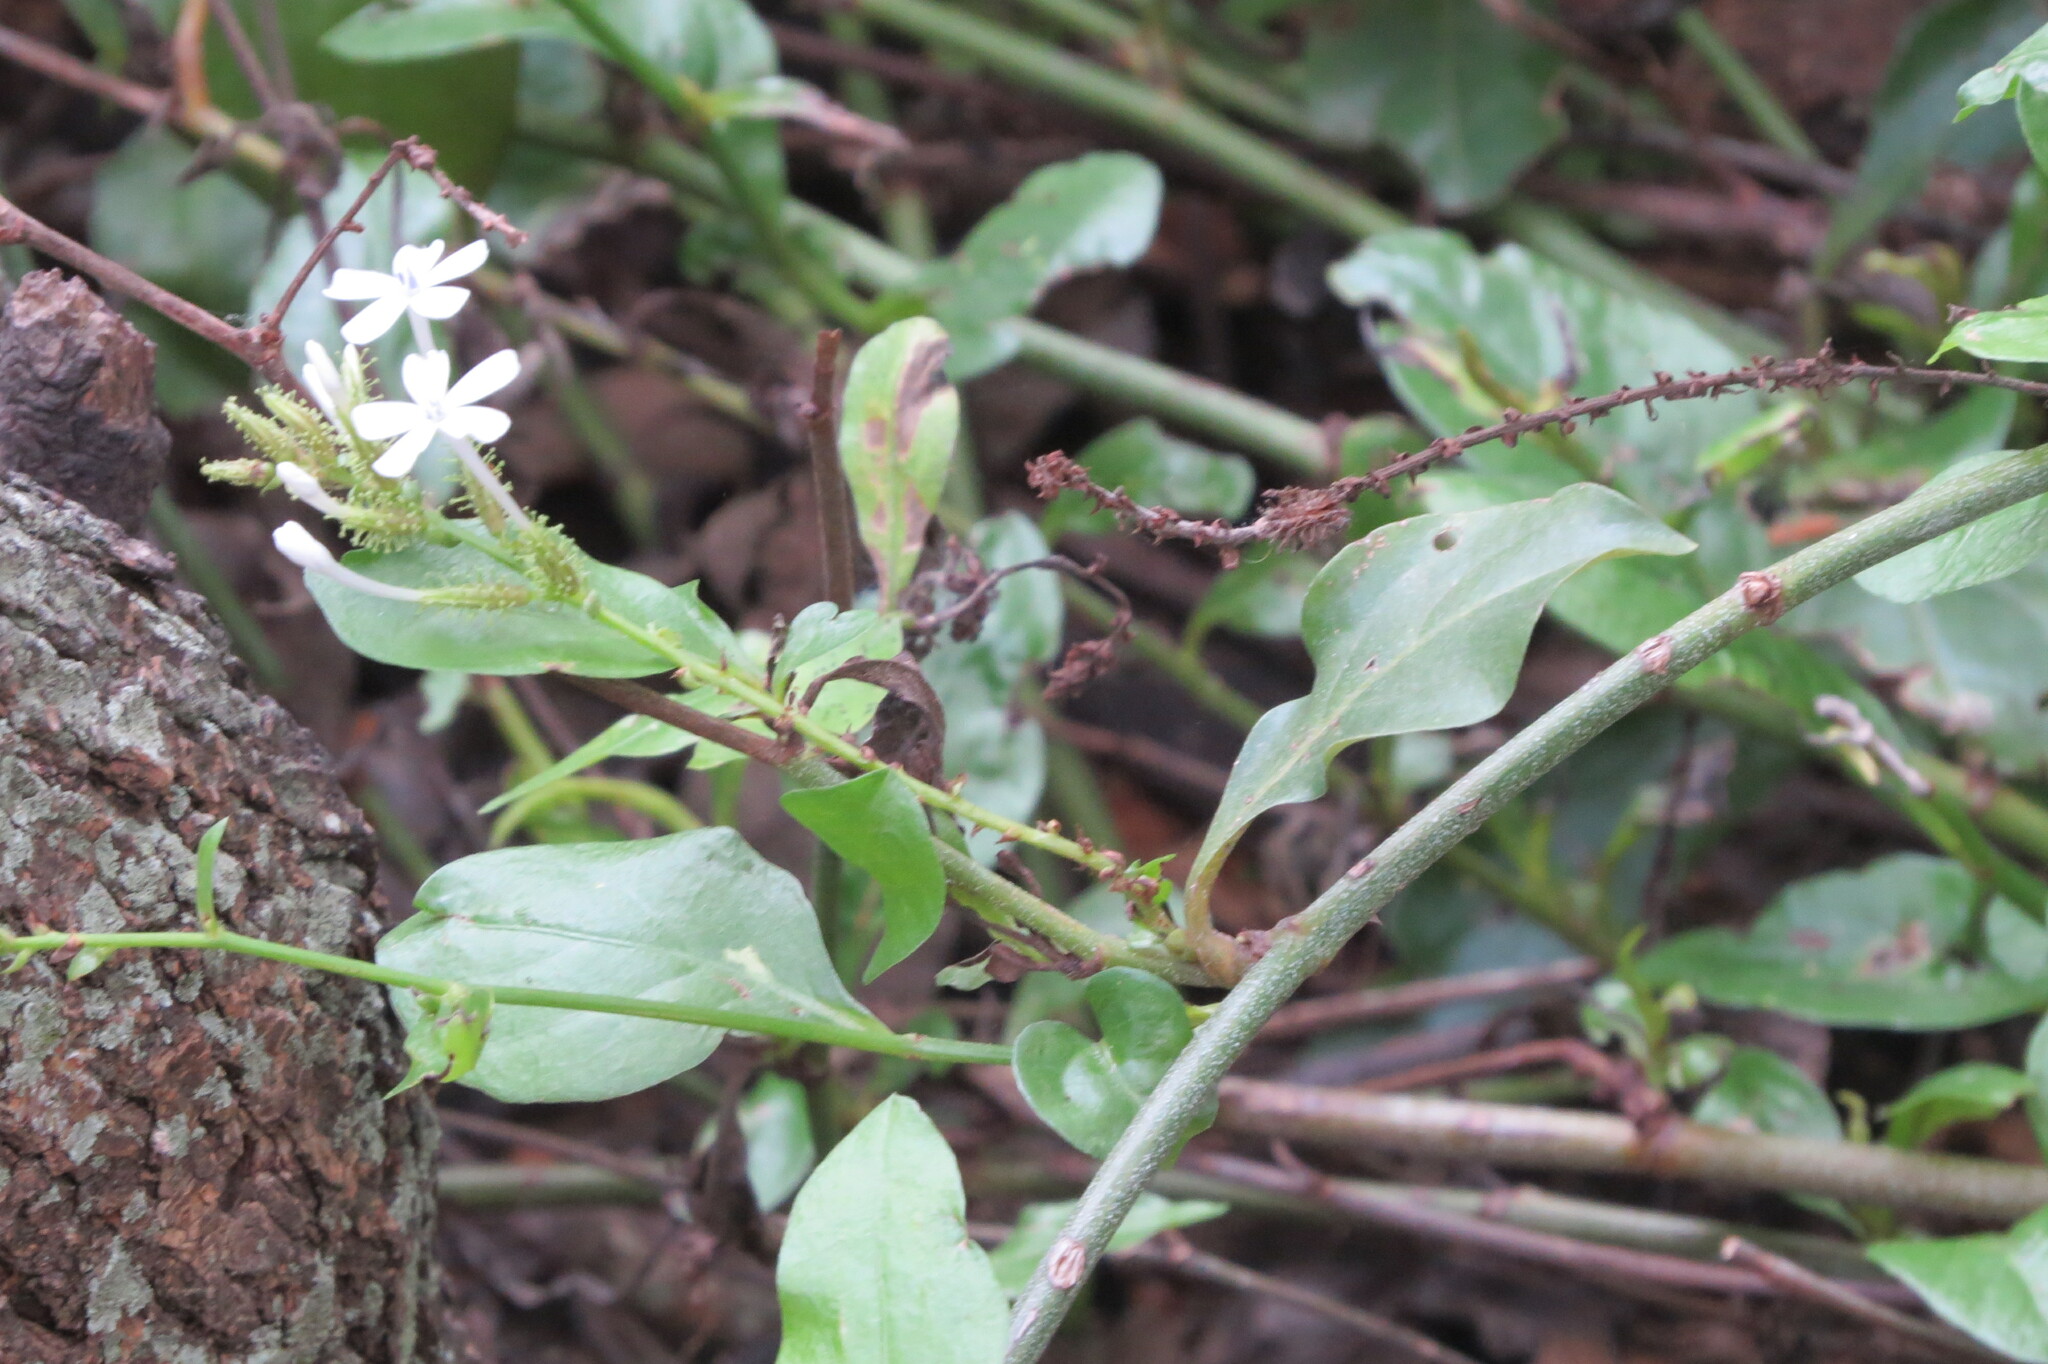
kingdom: Plantae
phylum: Tracheophyta
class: Magnoliopsida
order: Caryophyllales
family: Plumbaginaceae
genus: Plumbago
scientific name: Plumbago zeylanica
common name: Doctorbush
